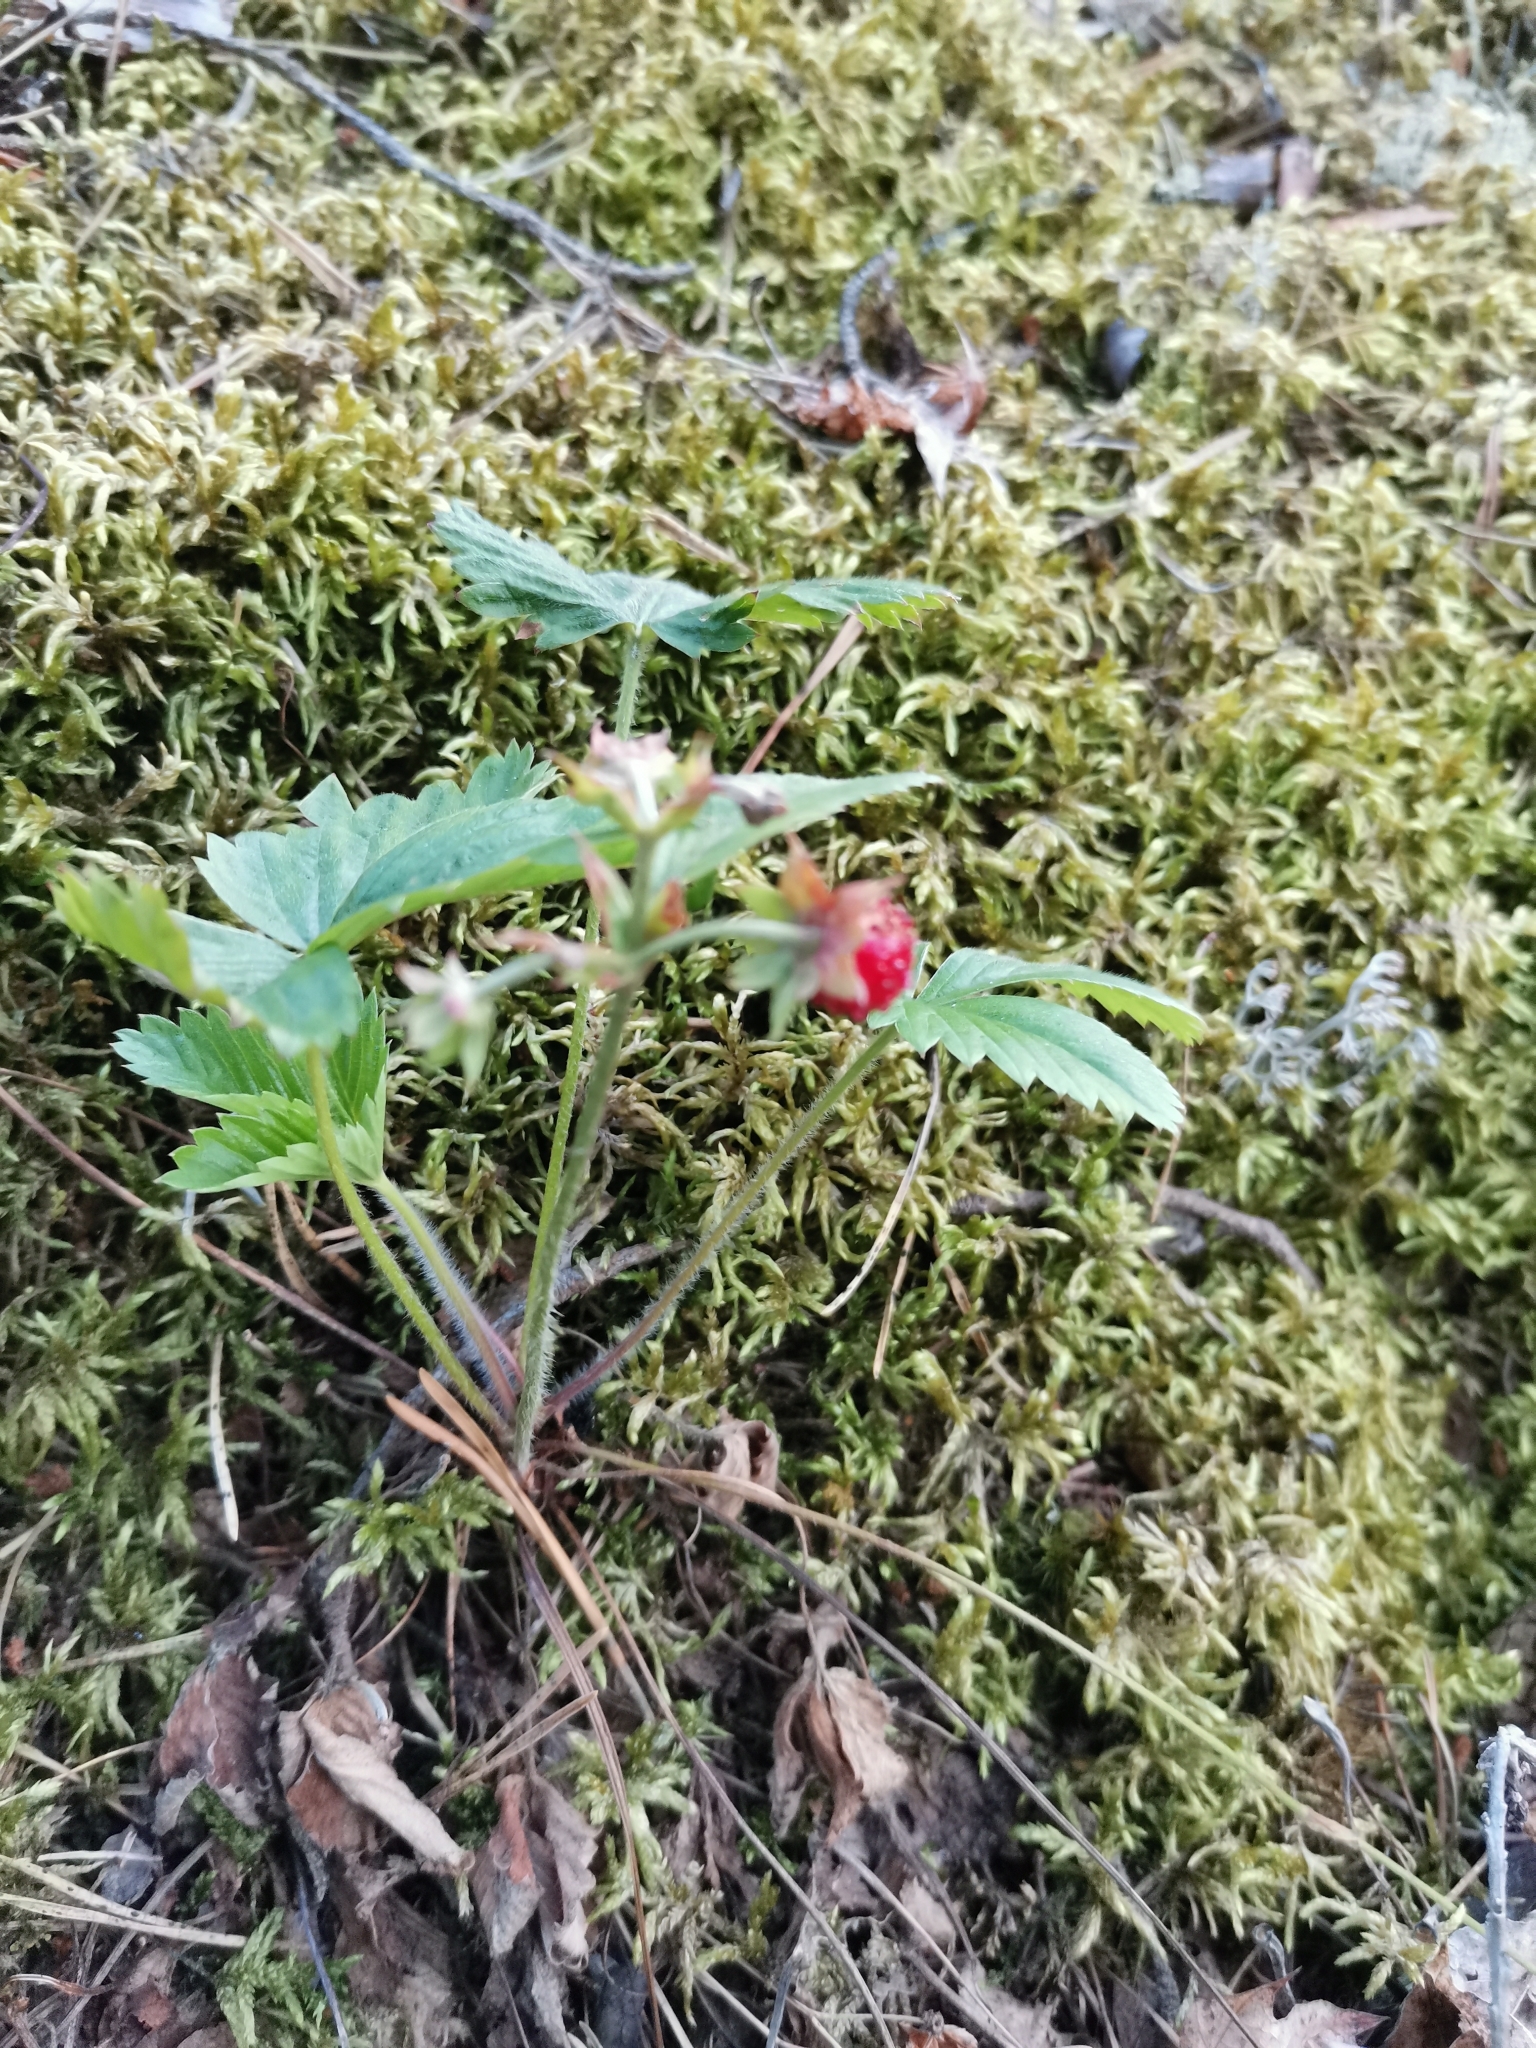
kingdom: Plantae
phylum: Tracheophyta
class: Magnoliopsida
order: Rosales
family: Rosaceae
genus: Fragaria
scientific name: Fragaria vesca
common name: Wild strawberry
